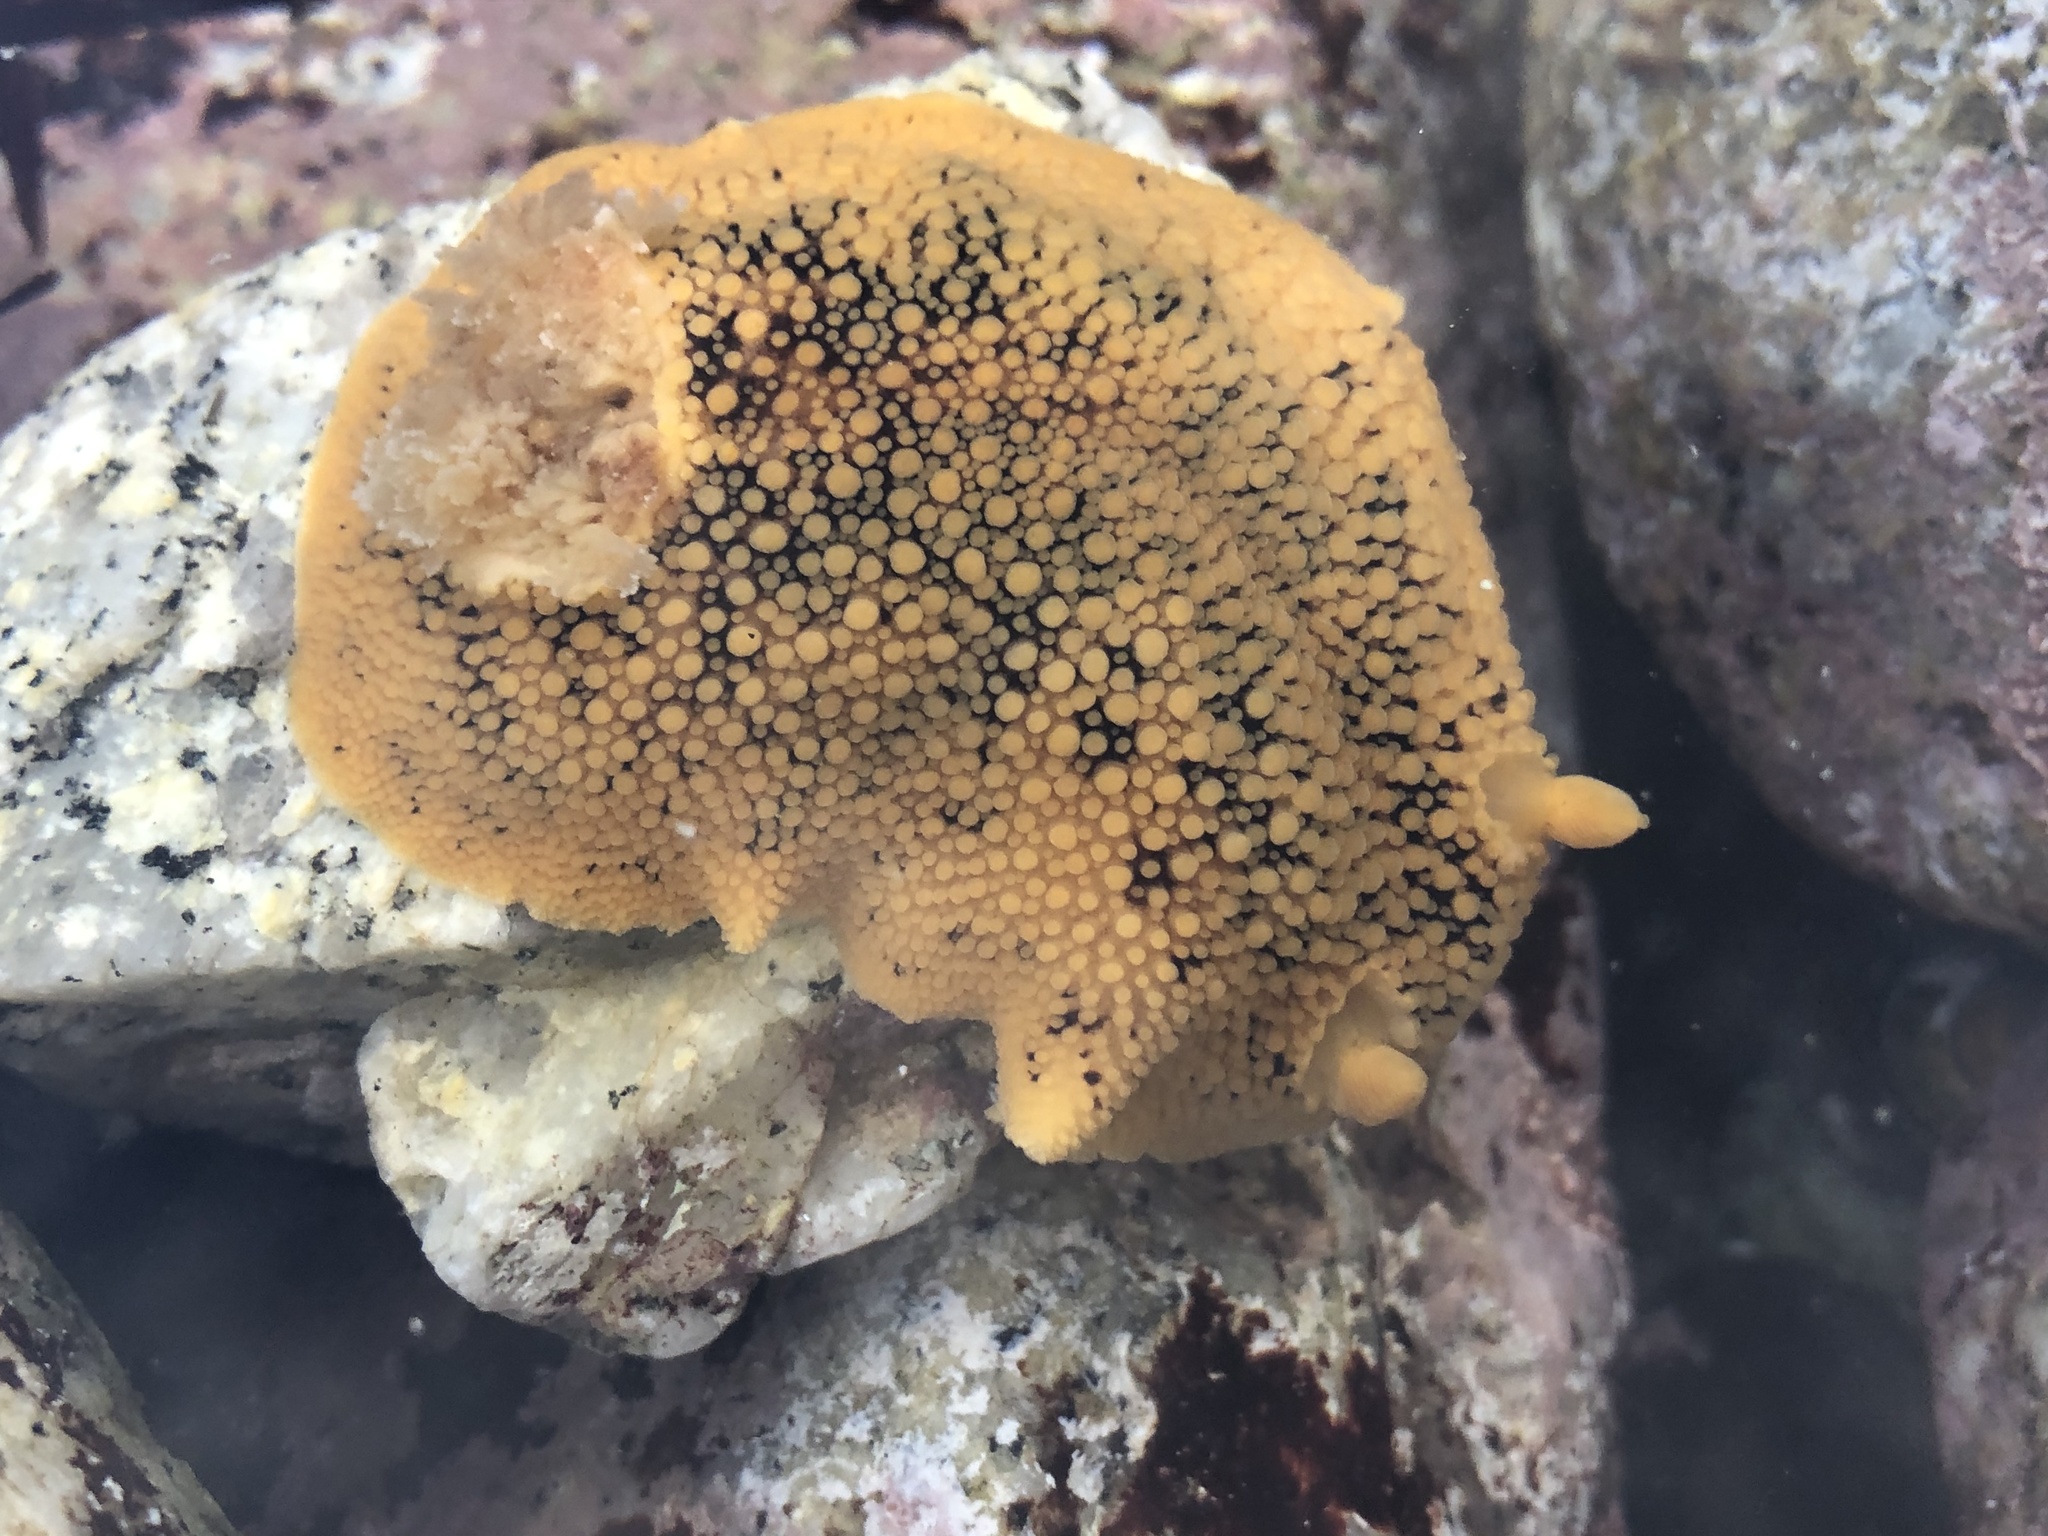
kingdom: Animalia
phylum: Mollusca
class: Gastropoda
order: Nudibranchia
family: Discodorididae
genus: Peltodoris
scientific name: Peltodoris nobilis
